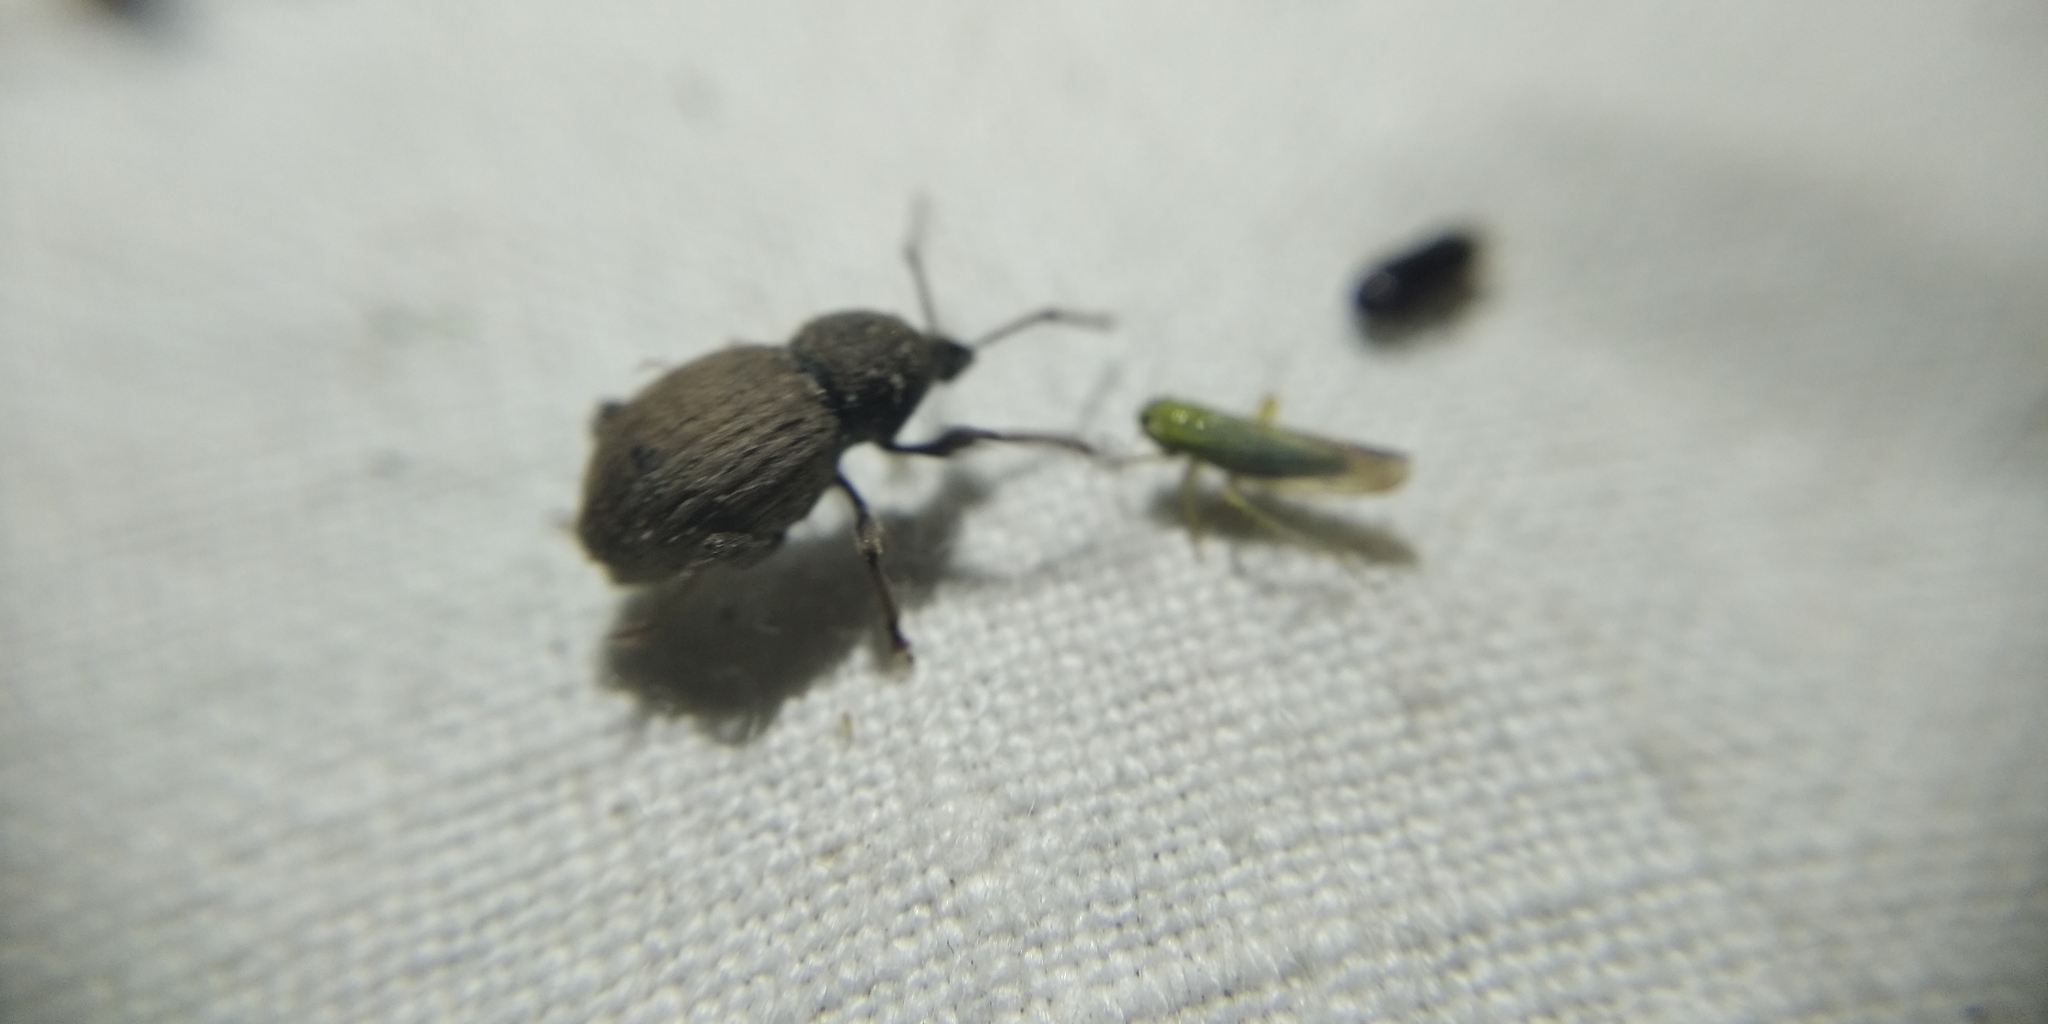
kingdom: Animalia
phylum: Arthropoda
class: Insecta
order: Coleoptera
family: Curculionidae
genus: Otiorhynchus
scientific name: Otiorhynchus raucus
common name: Weevil
